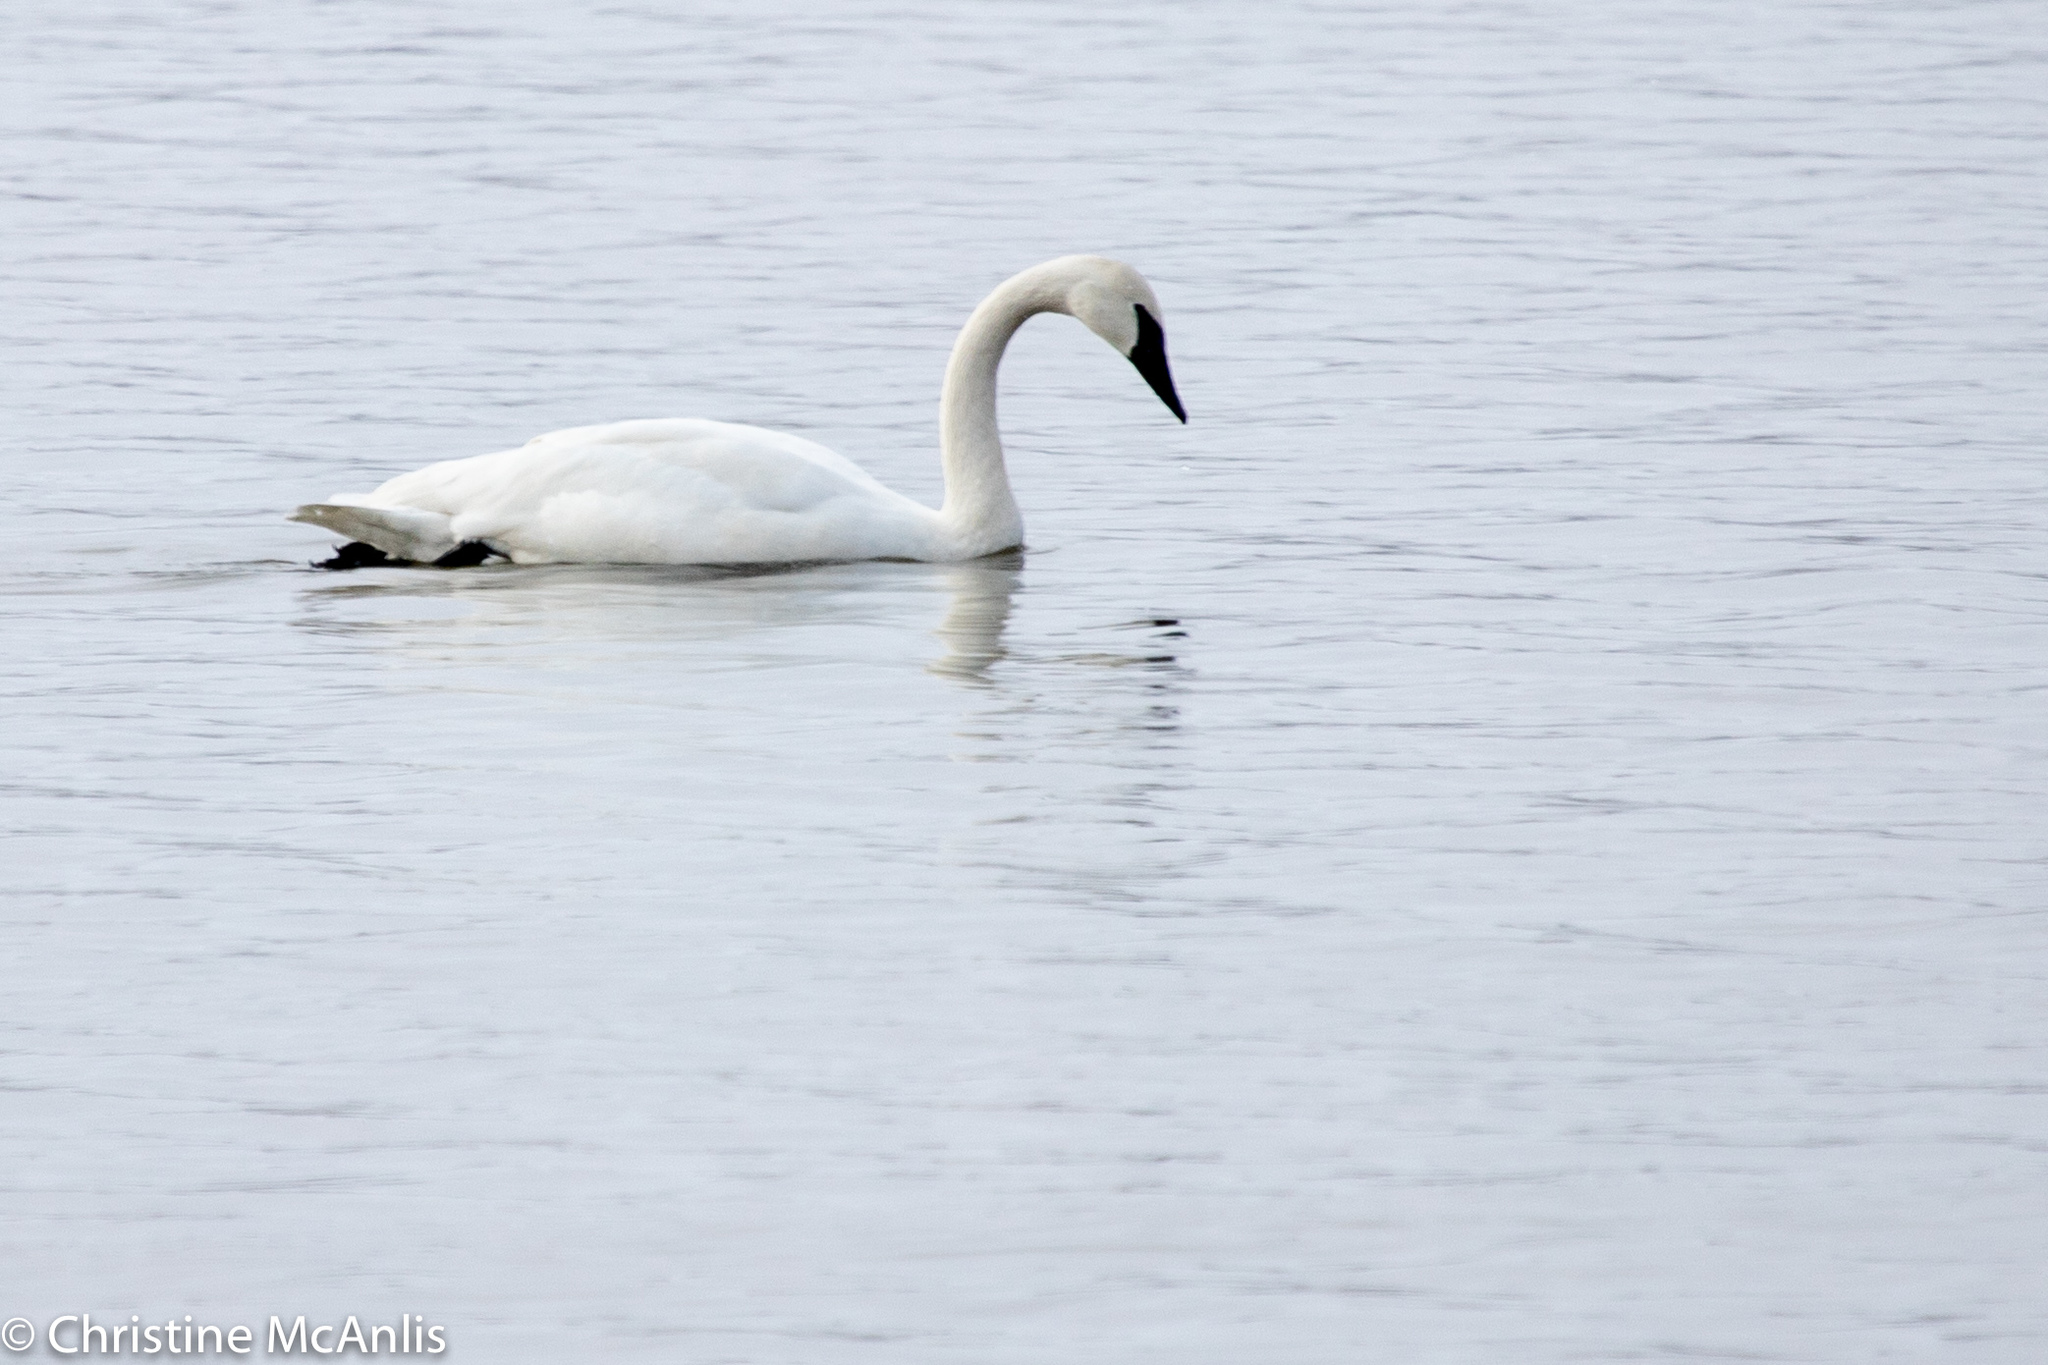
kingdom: Animalia
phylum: Chordata
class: Aves
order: Anseriformes
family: Anatidae
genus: Cygnus
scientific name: Cygnus buccinator
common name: Trumpeter swan
